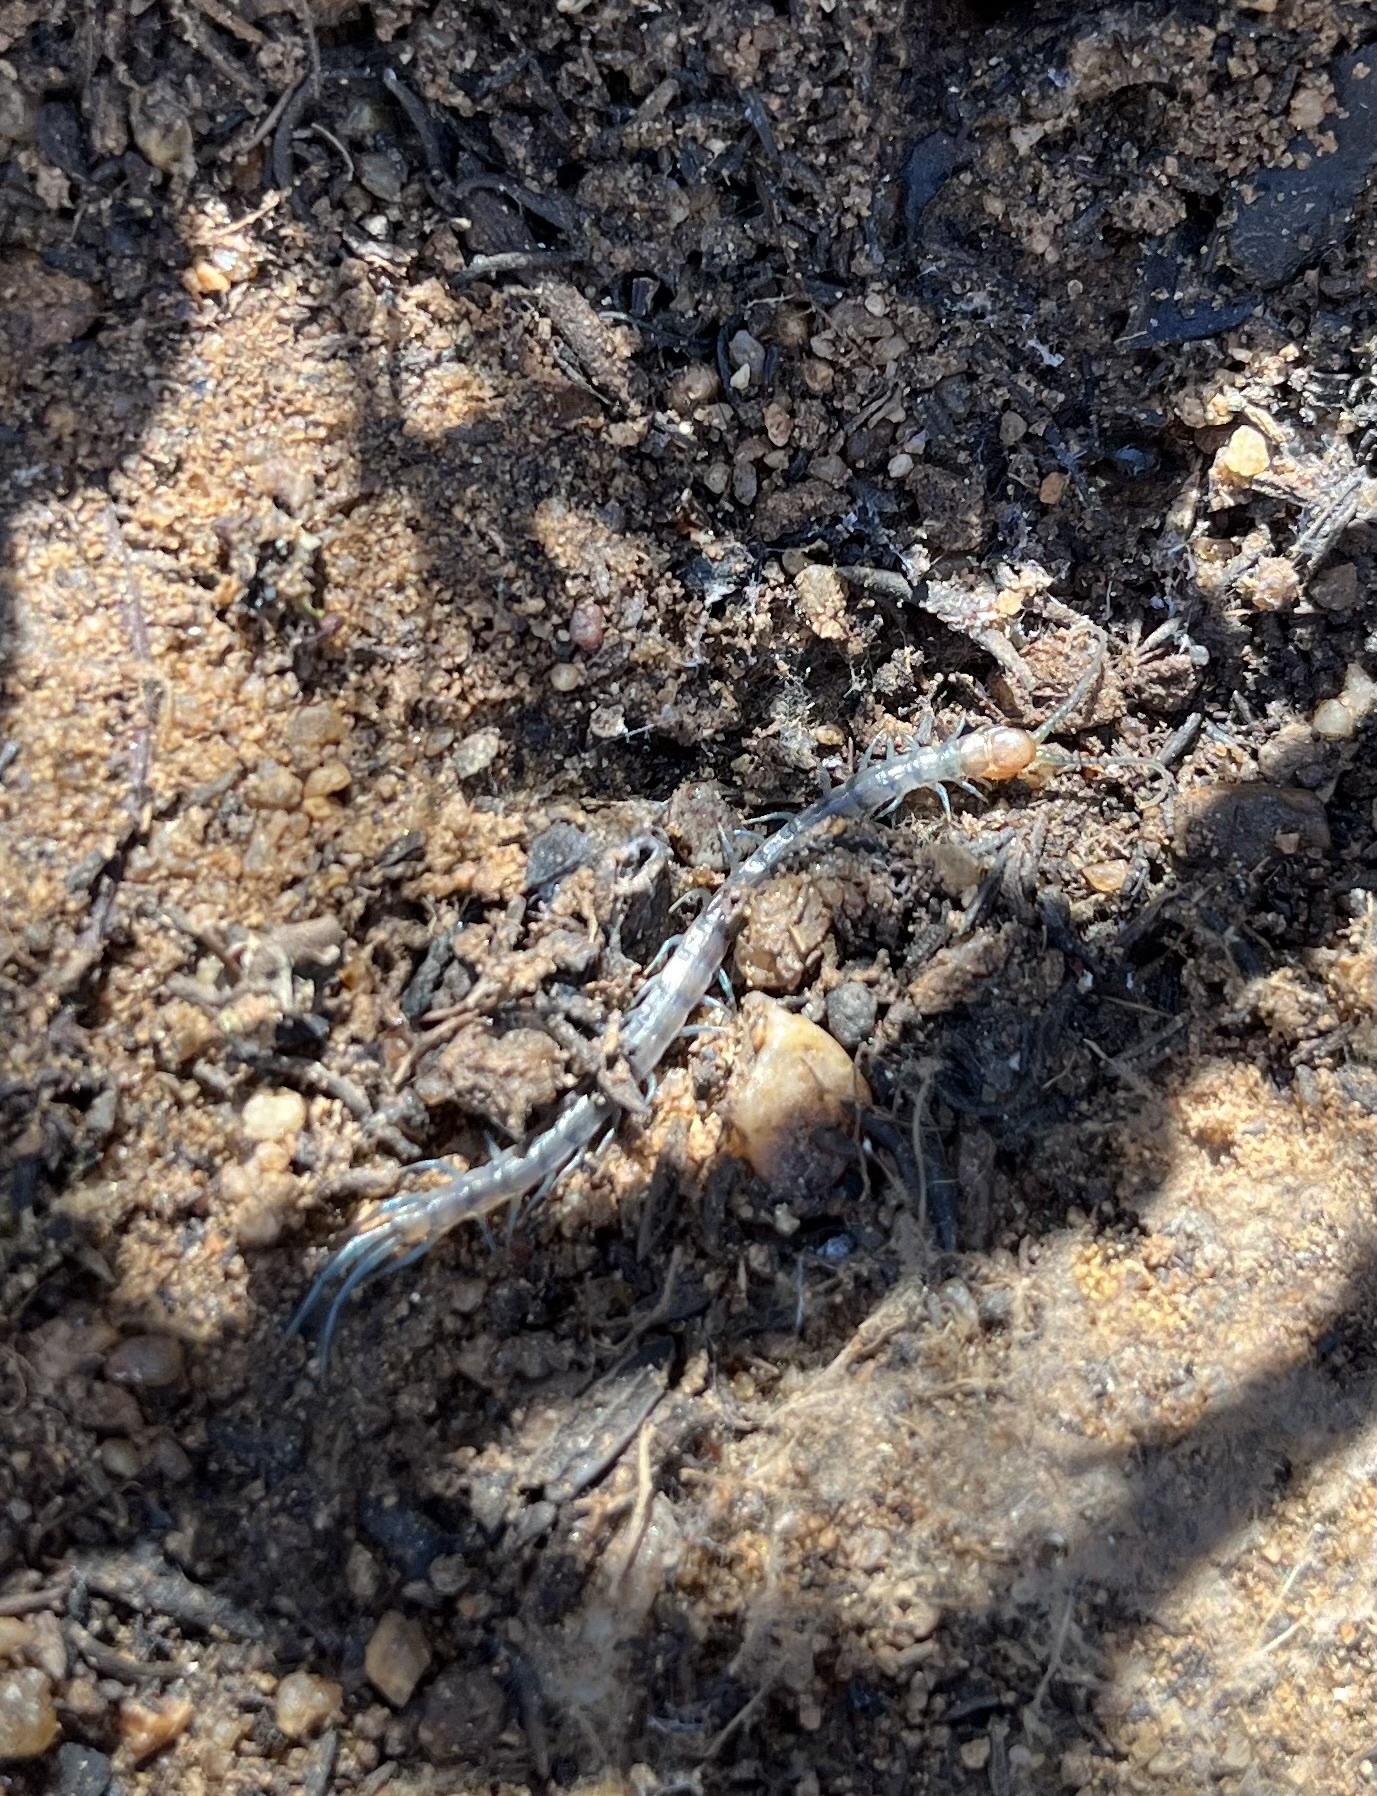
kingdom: Animalia
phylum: Arthropoda
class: Chilopoda
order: Scolopendromorpha
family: Scolopendridae
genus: Scolopendra
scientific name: Scolopendra polymorpha
